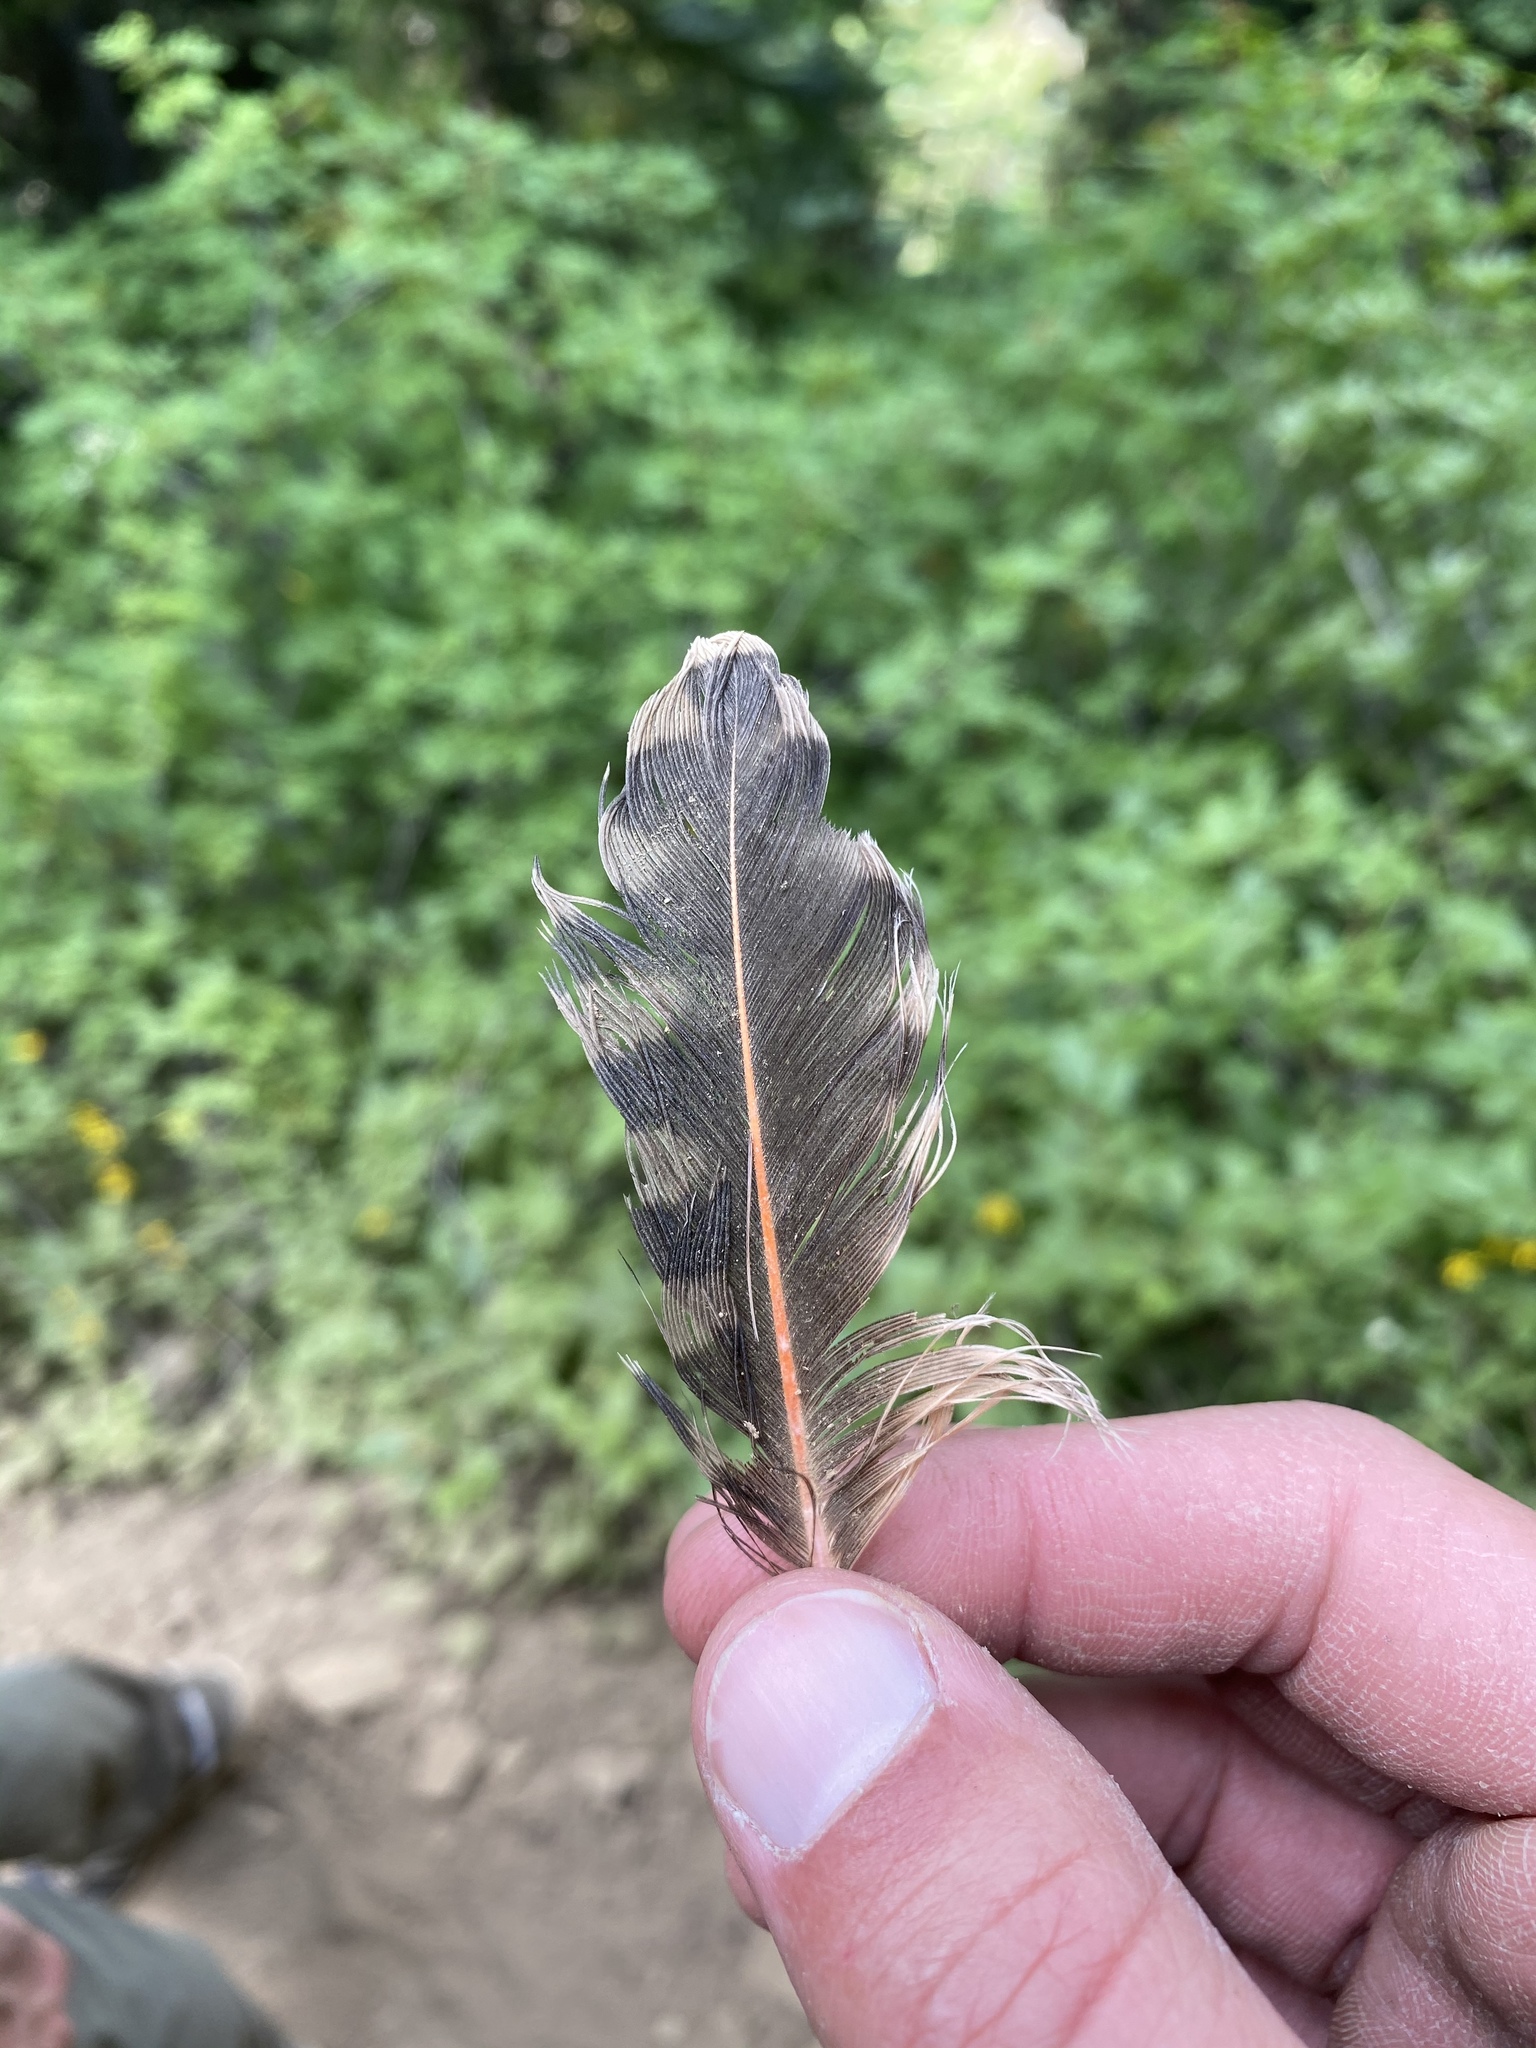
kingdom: Animalia
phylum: Chordata
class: Aves
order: Piciformes
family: Picidae
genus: Colaptes
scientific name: Colaptes auratus
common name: Northern flicker
